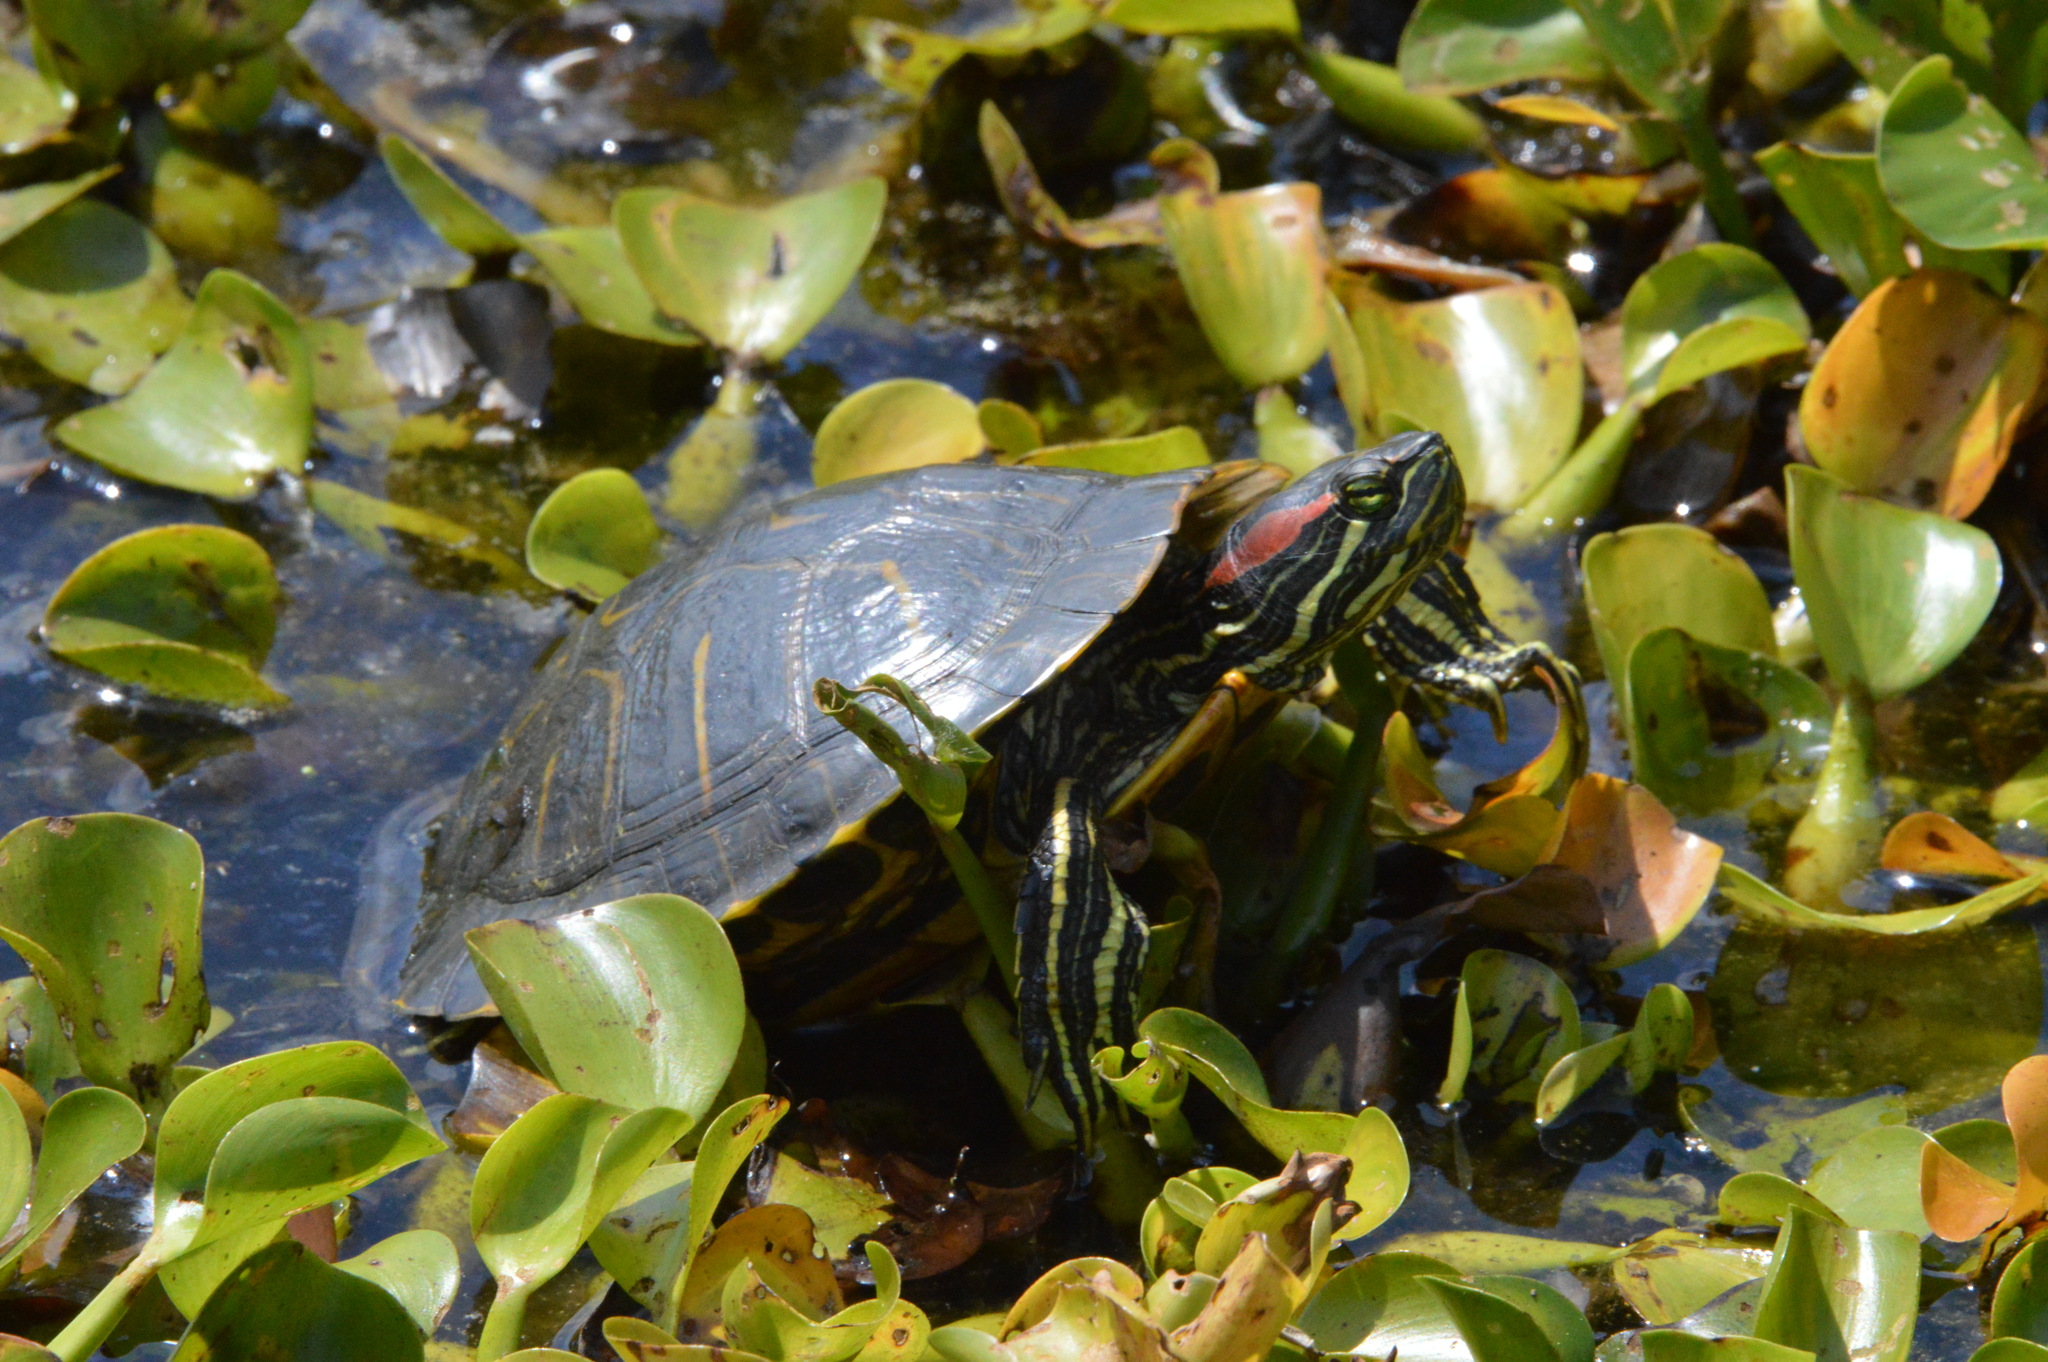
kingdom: Animalia
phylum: Chordata
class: Testudines
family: Emydidae
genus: Trachemys
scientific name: Trachemys scripta
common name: Slider
